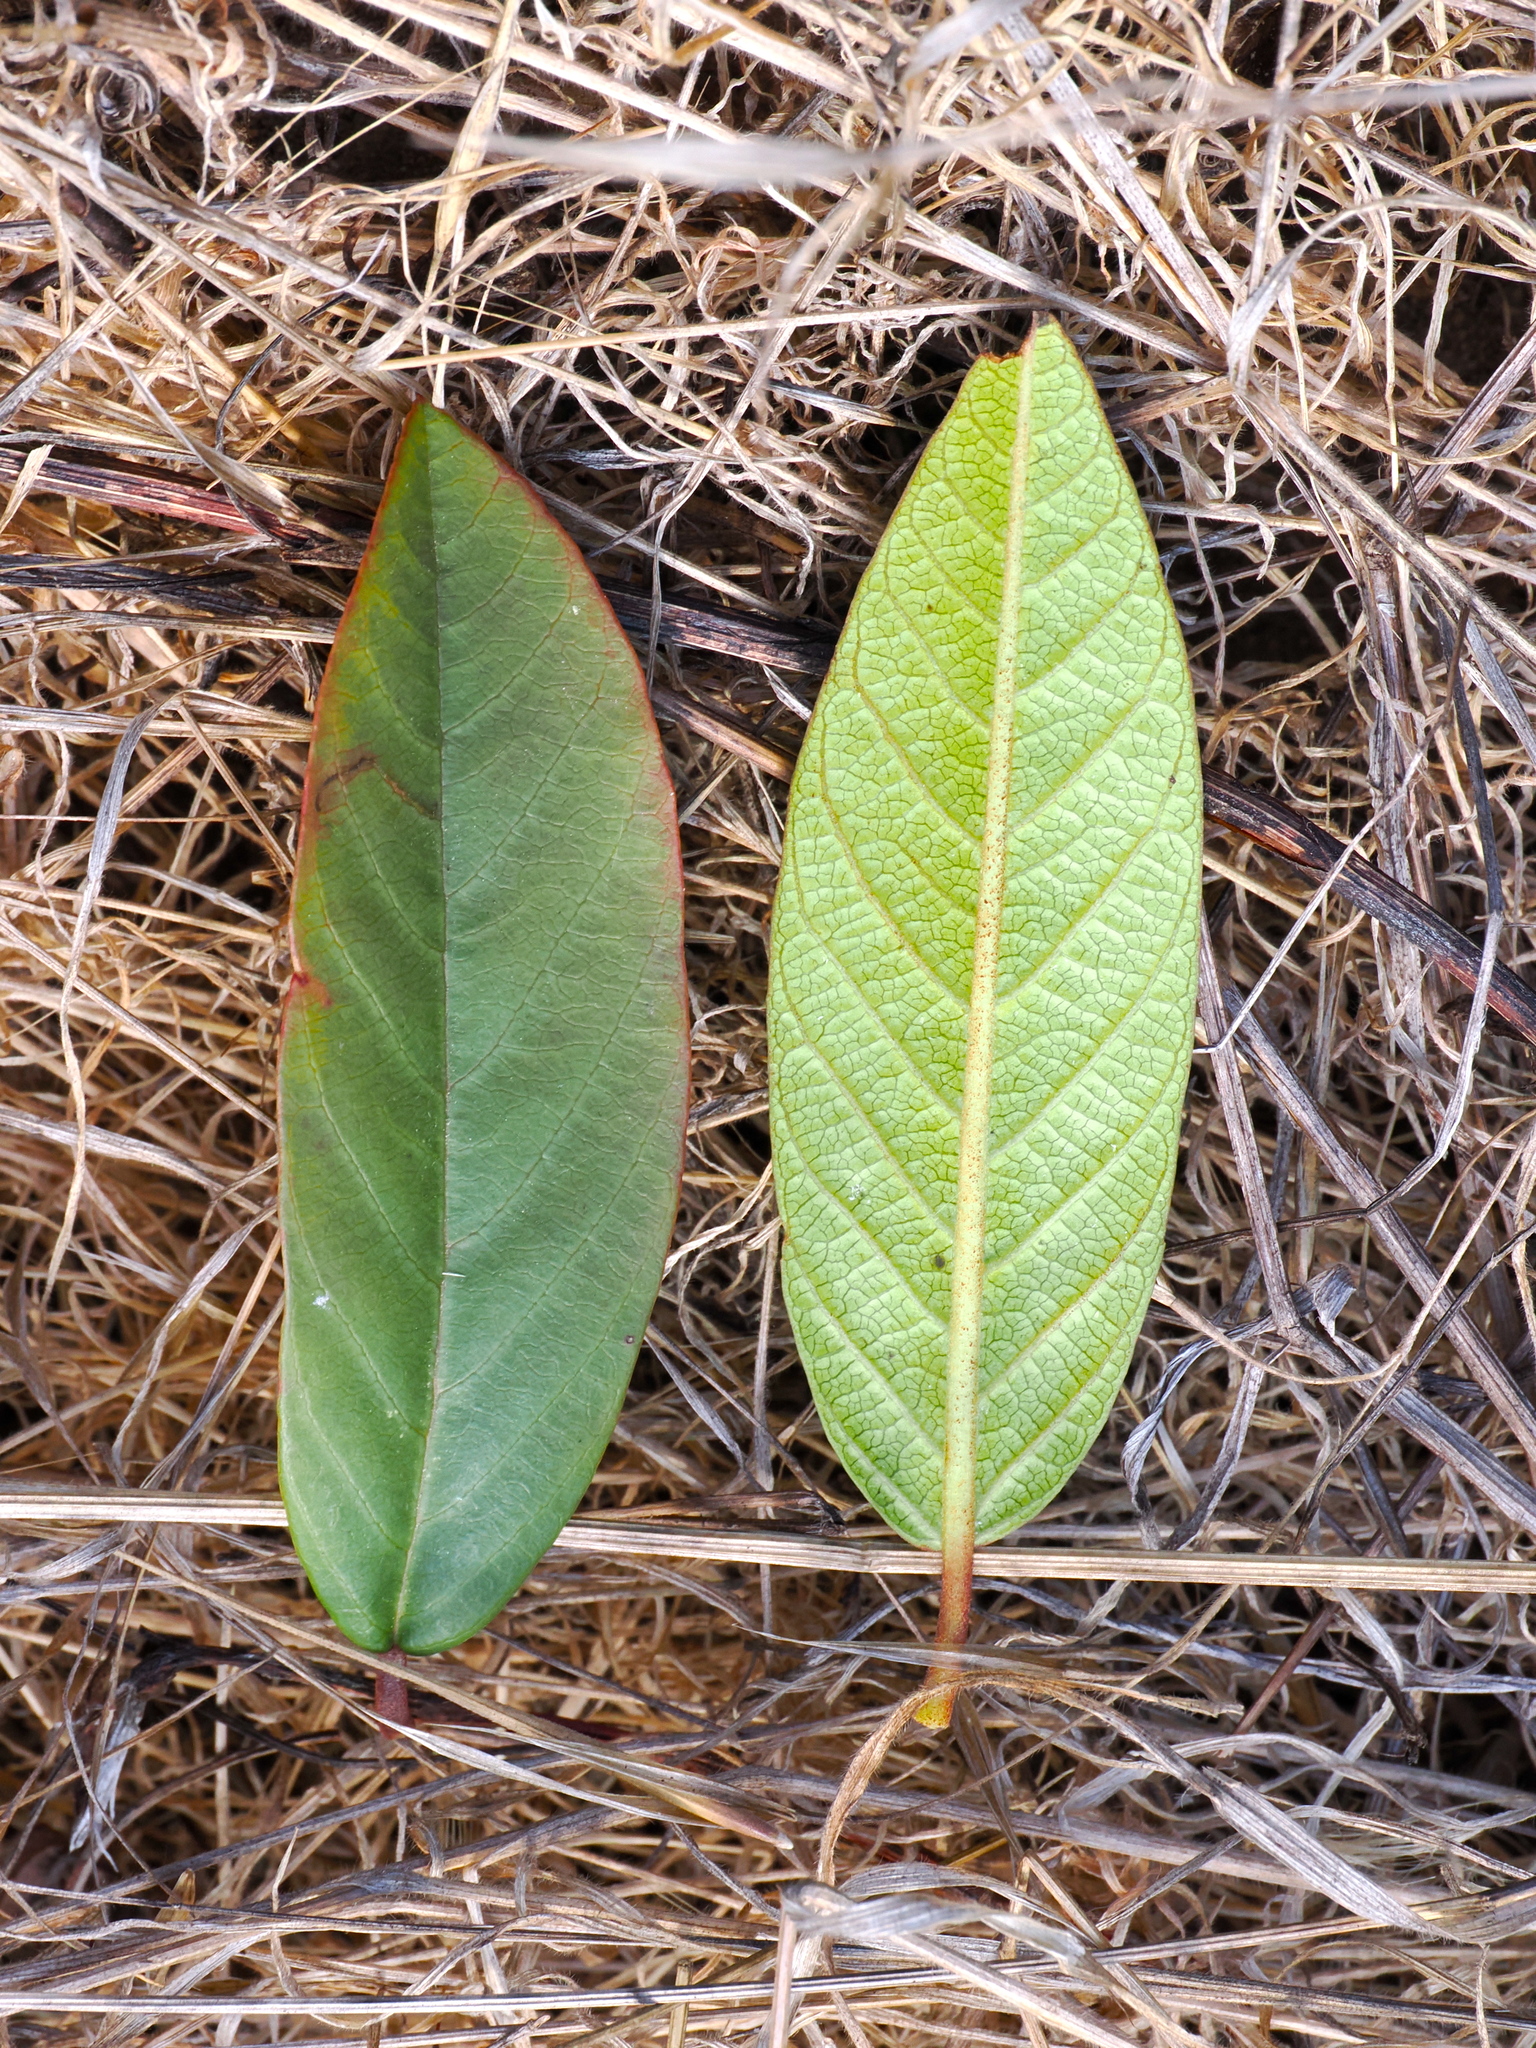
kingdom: Plantae
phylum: Tracheophyta
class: Magnoliopsida
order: Rosales
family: Rhamnaceae
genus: Frangula
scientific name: Frangula californica
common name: California buckthorn
